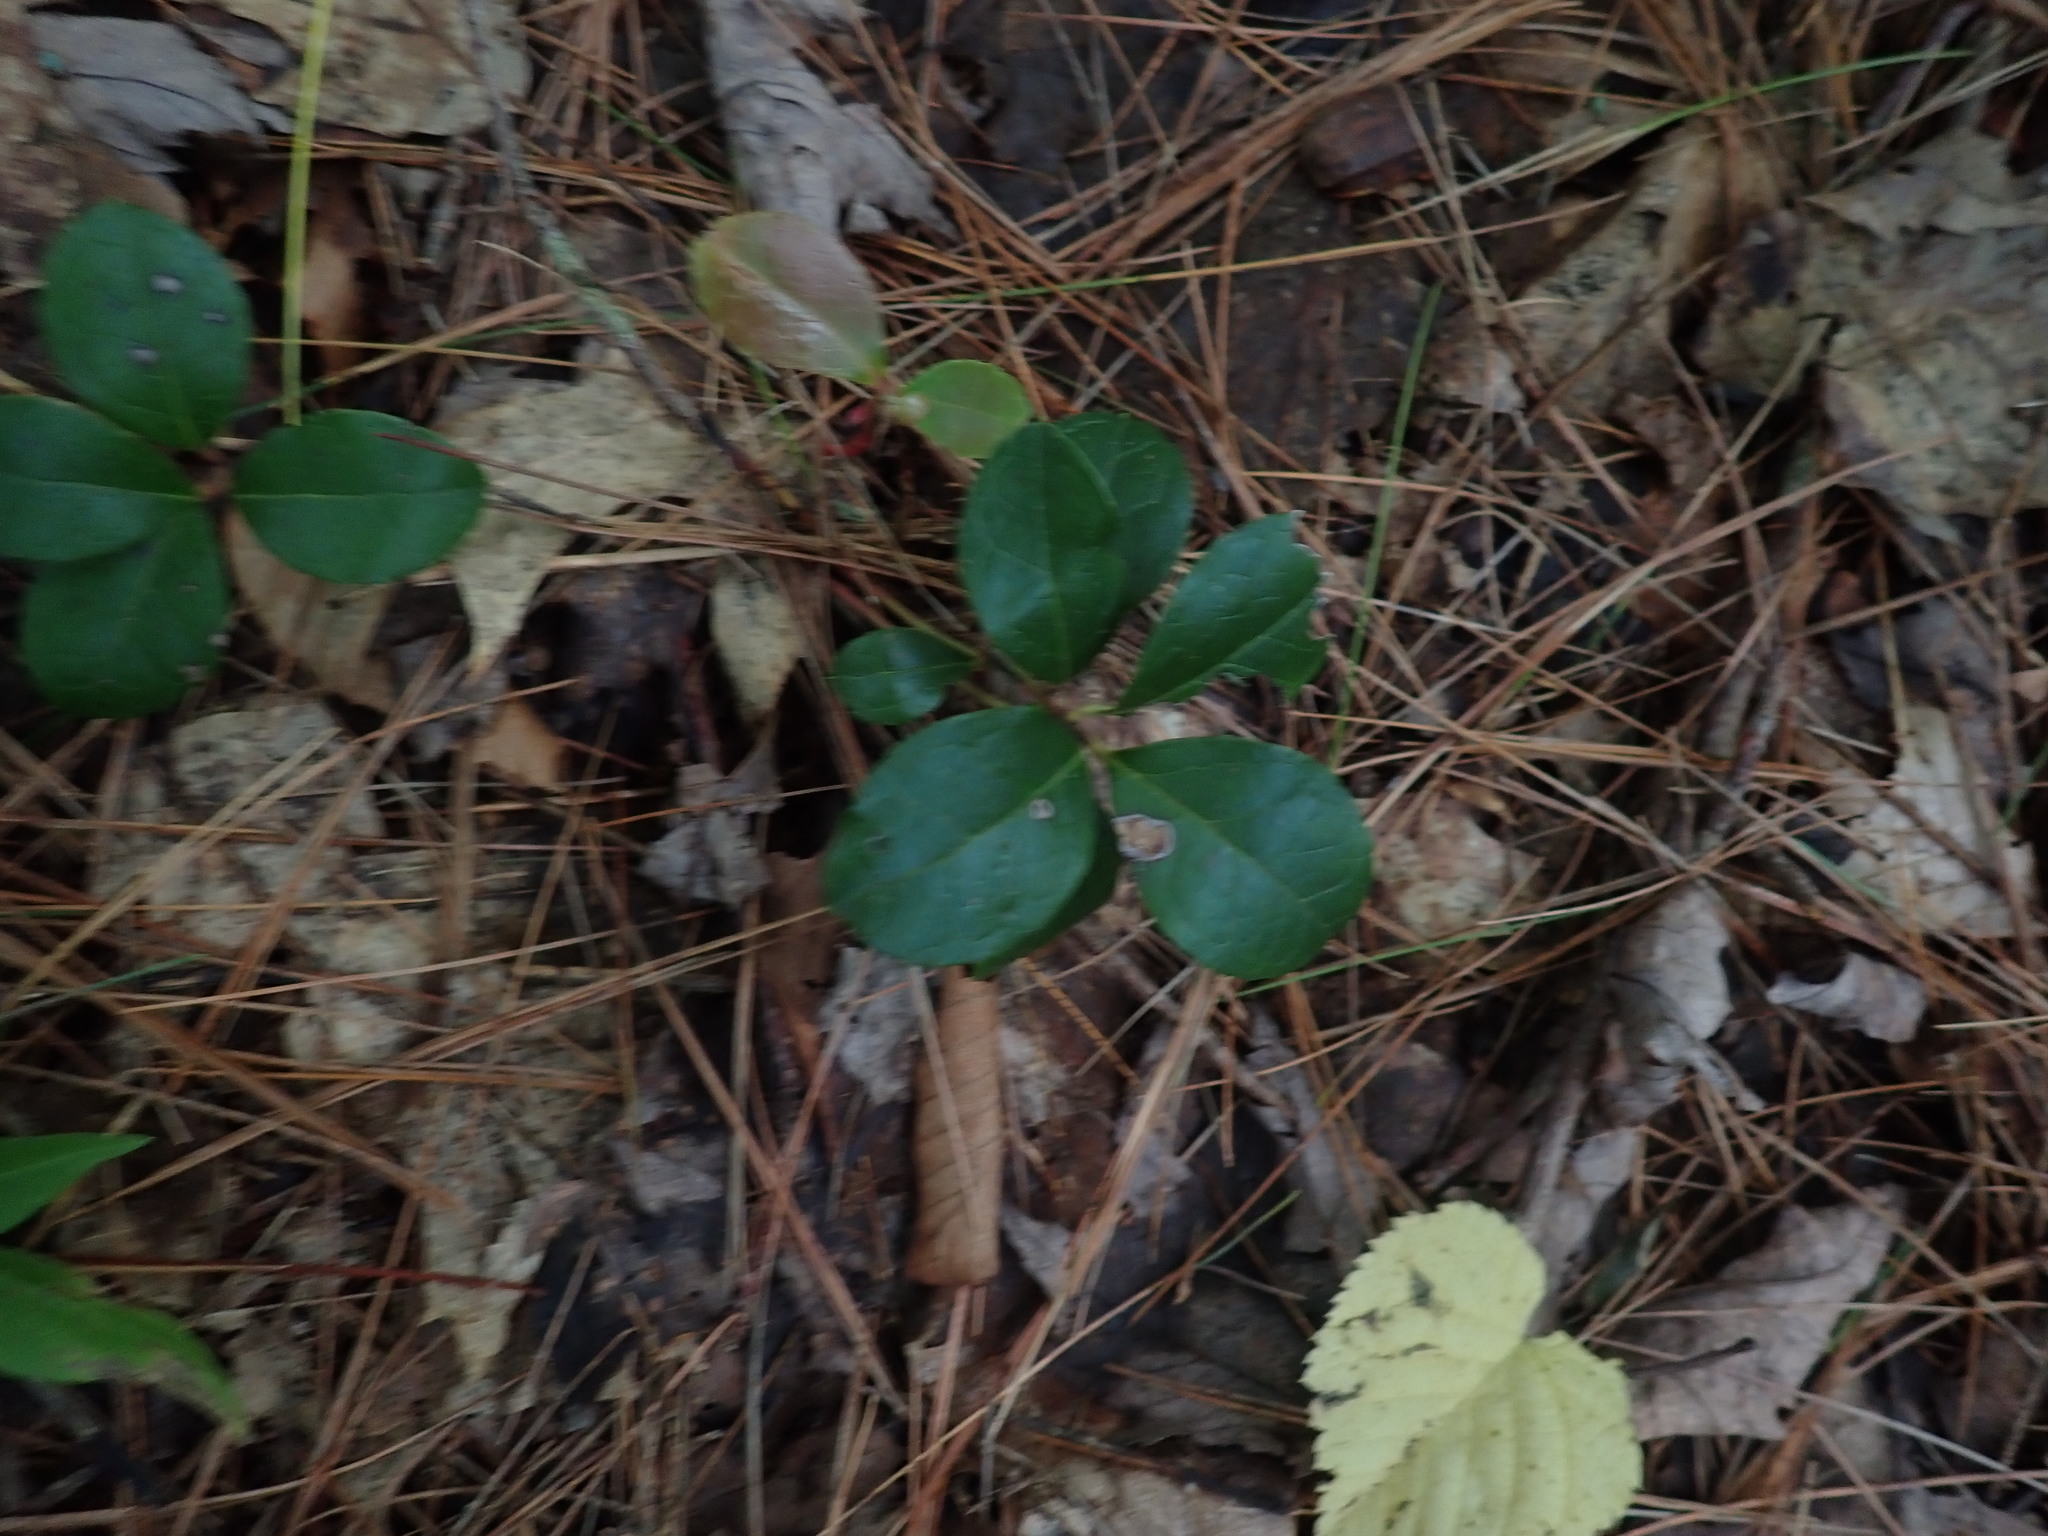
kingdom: Plantae
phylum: Tracheophyta
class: Magnoliopsida
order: Ericales
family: Ericaceae
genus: Gaultheria
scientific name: Gaultheria procumbens
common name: Checkerberry
